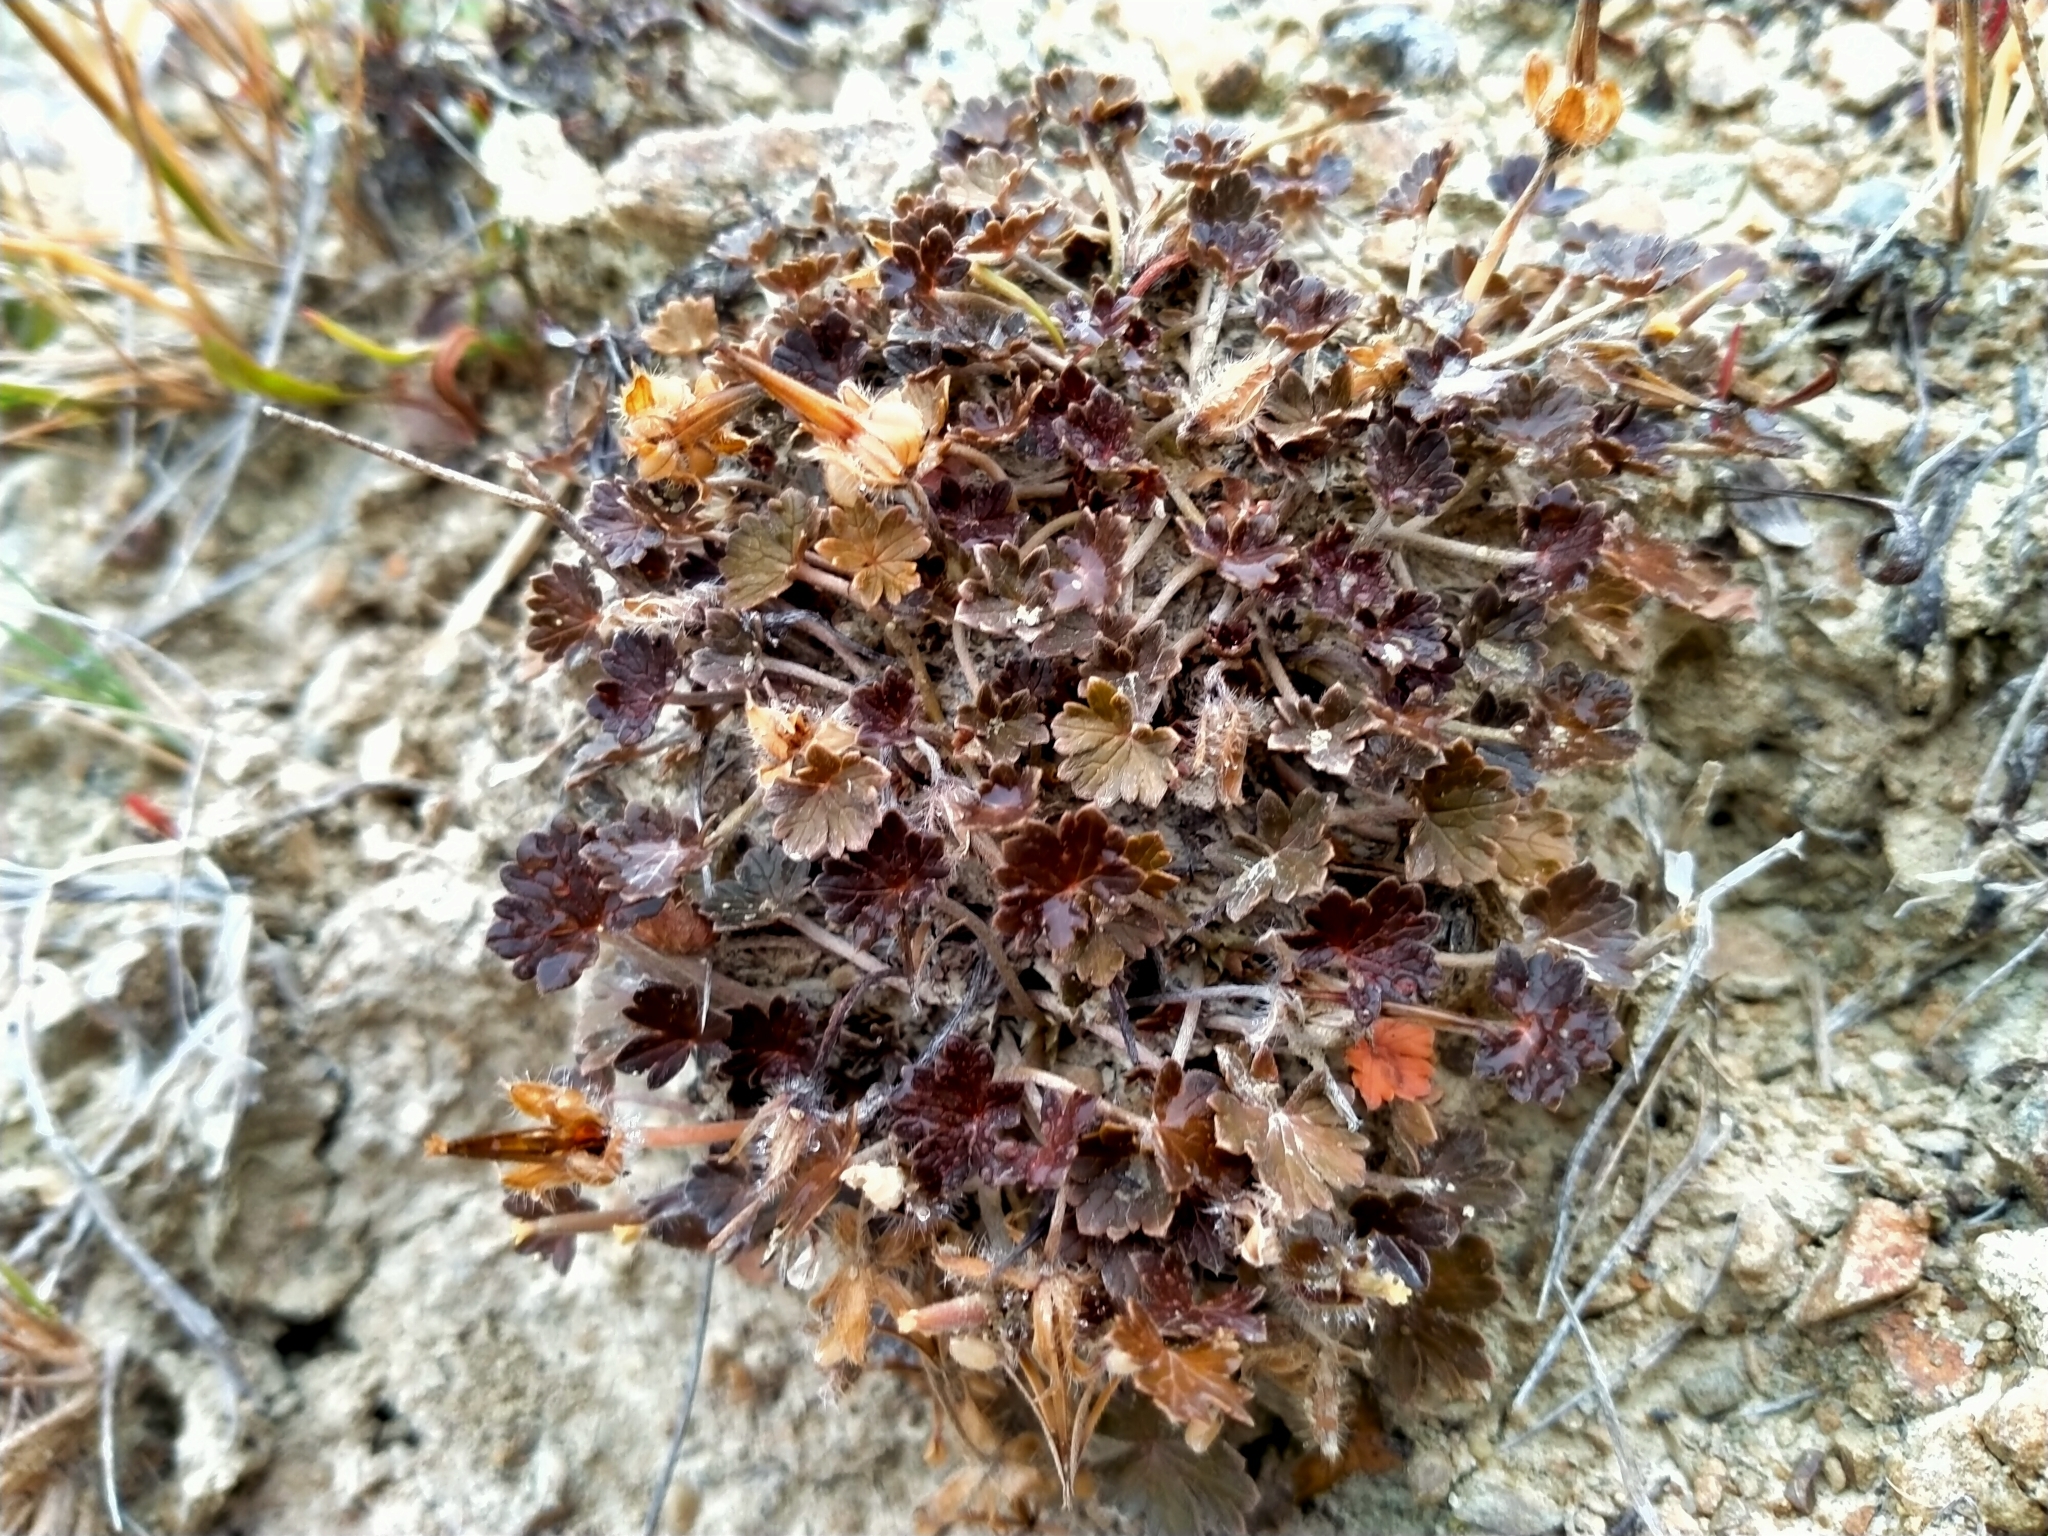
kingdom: Plantae
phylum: Tracheophyta
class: Magnoliopsida
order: Geraniales
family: Geraniaceae
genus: Geranium
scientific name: Geranium brevicaule
